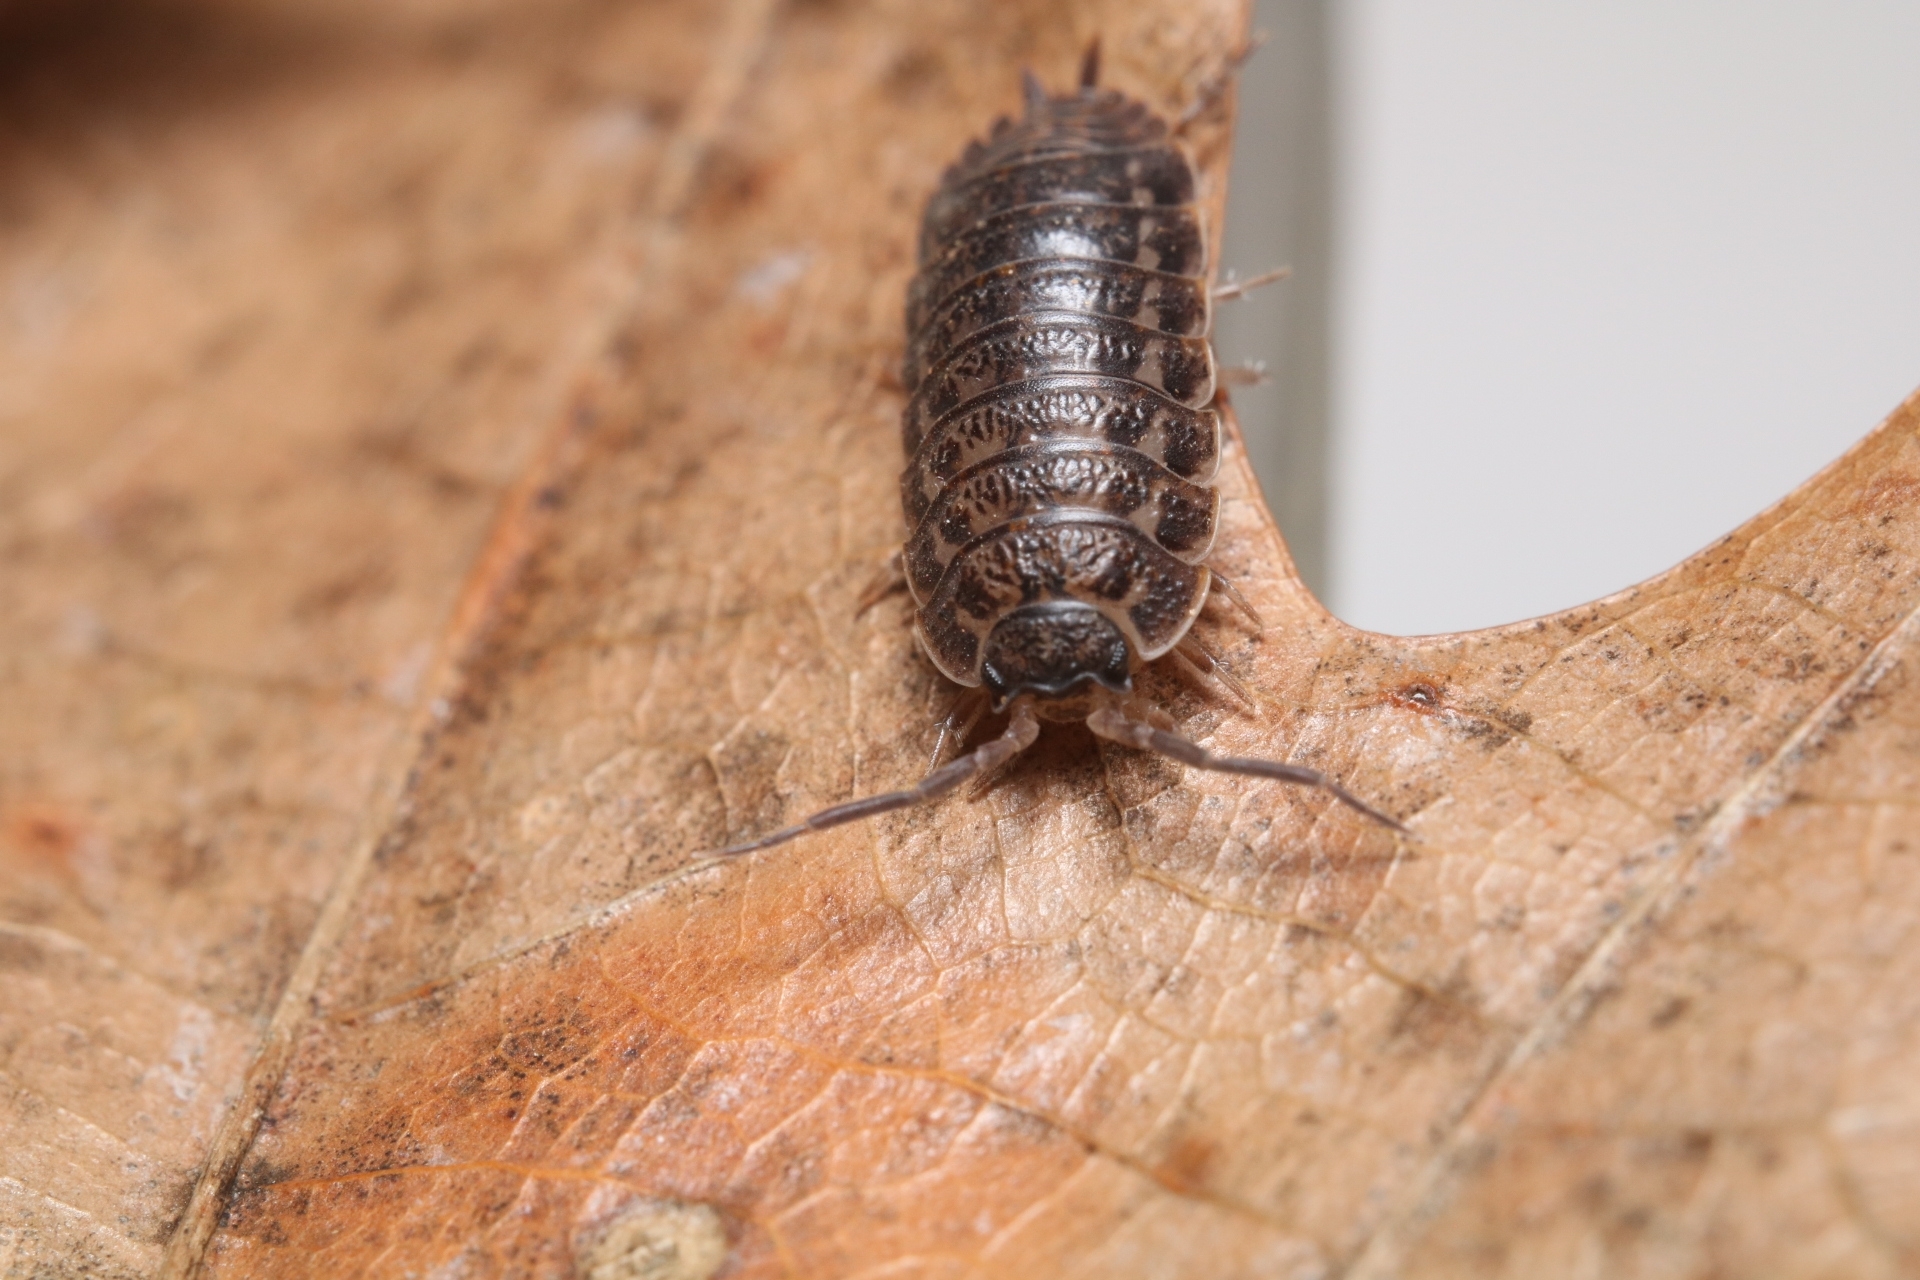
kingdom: Animalia
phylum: Arthropoda
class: Malacostraca
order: Isopoda
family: Trachelipodidae
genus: Trachelipus
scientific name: Trachelipus rathkii
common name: Isopod
